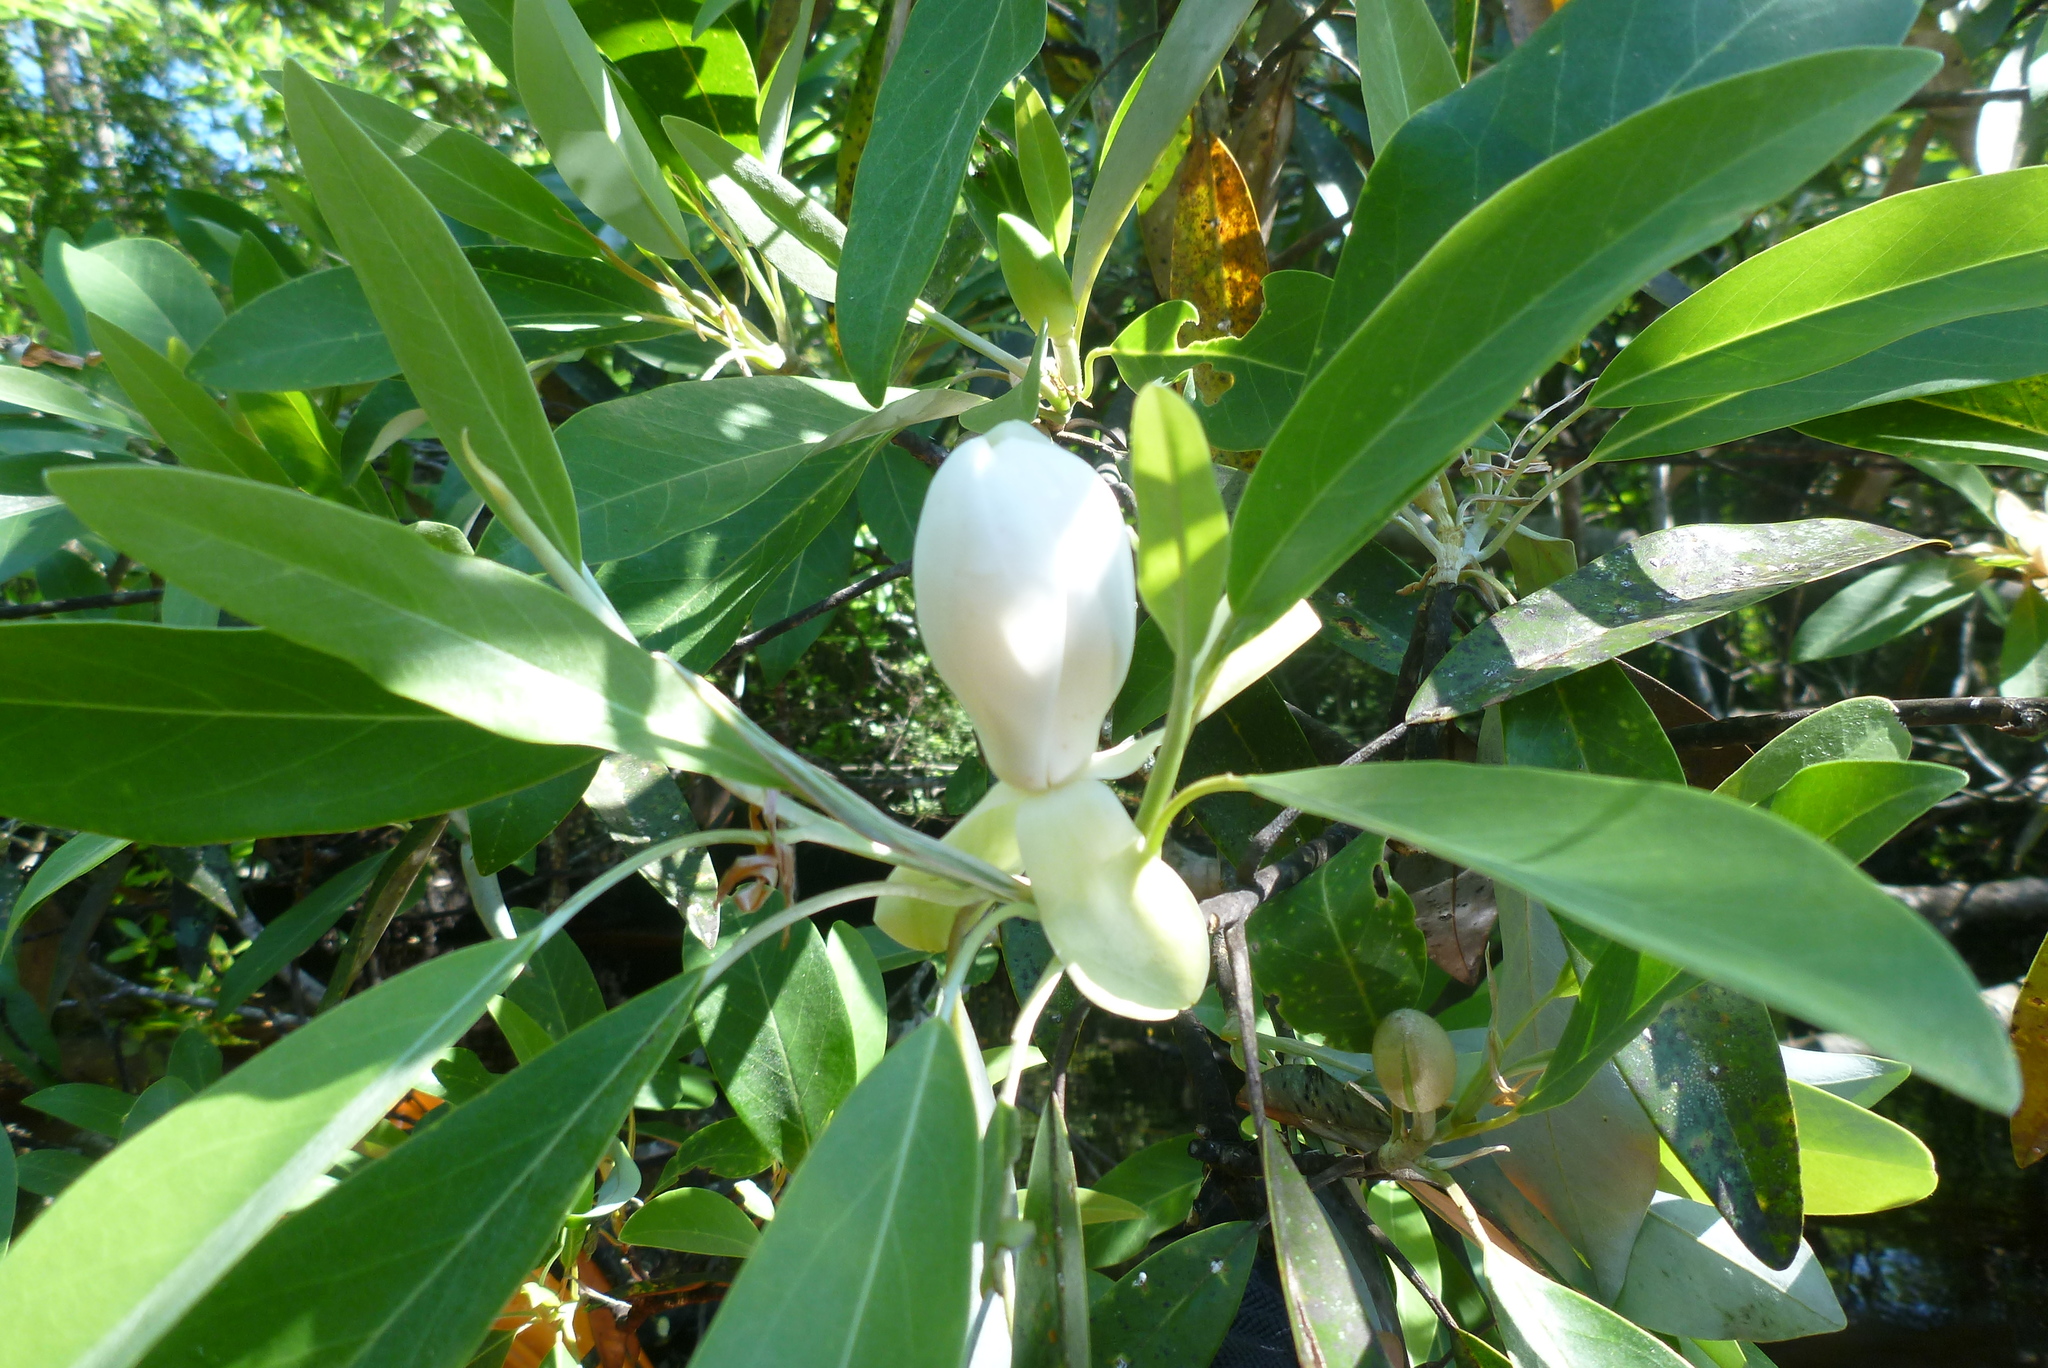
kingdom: Plantae
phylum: Tracheophyta
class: Magnoliopsida
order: Magnoliales
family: Magnoliaceae
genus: Magnolia
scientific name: Magnolia virginiana
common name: Swamp bay
